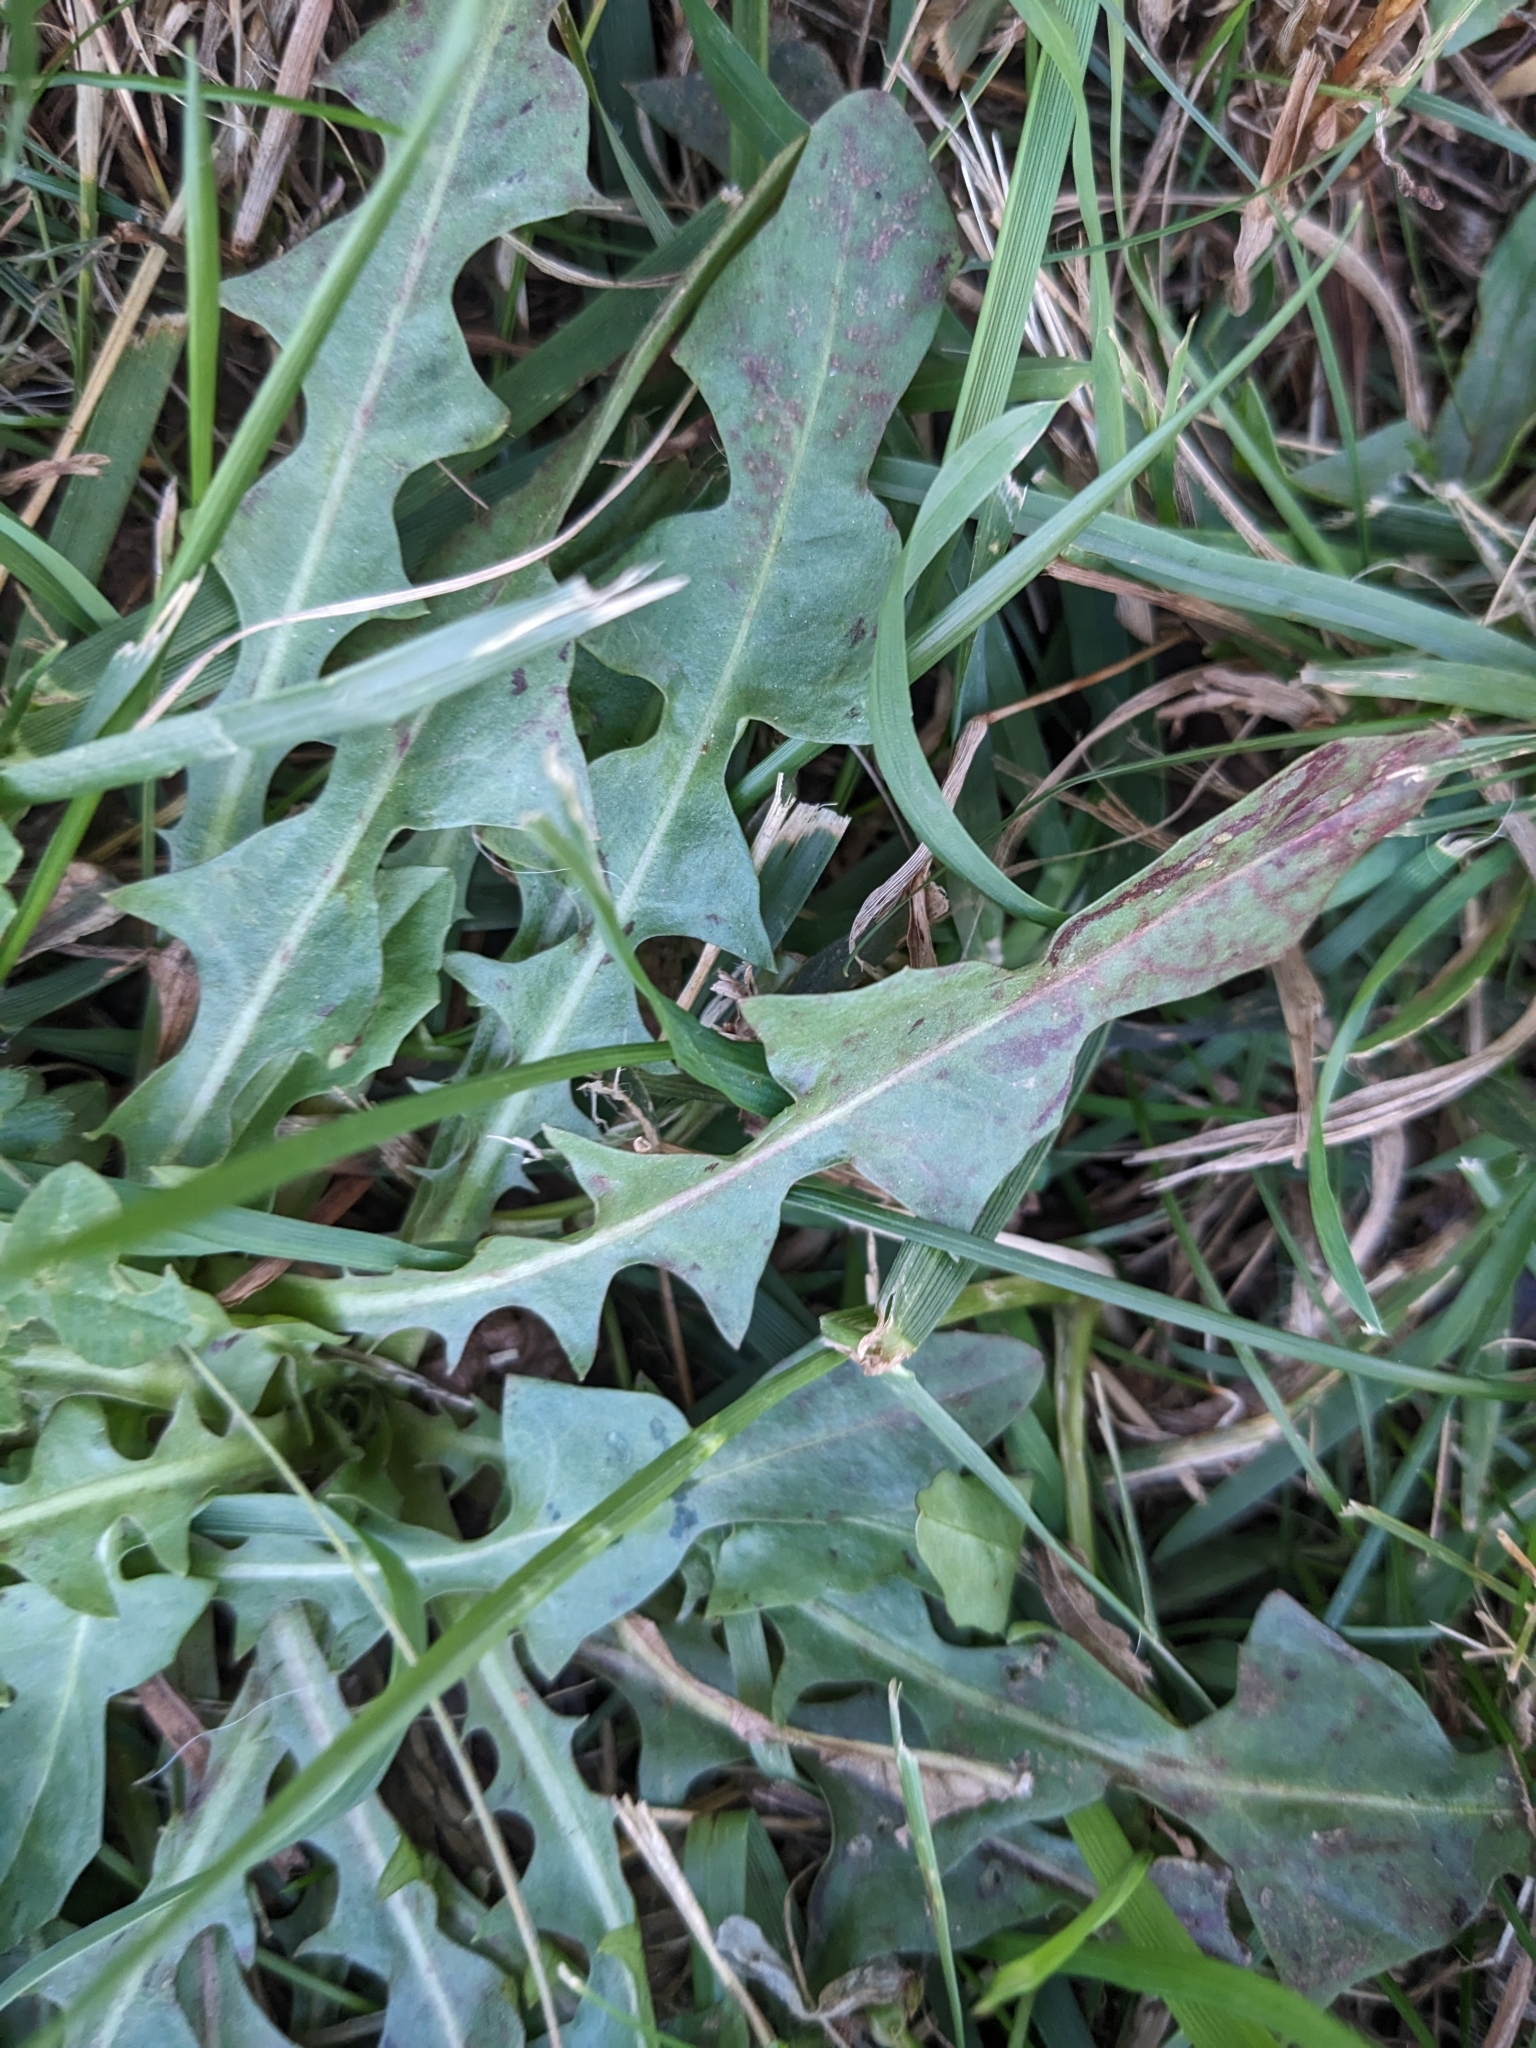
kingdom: Plantae
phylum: Tracheophyta
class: Magnoliopsida
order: Asterales
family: Asteraceae
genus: Taraxacum
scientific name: Taraxacum officinale
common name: Common dandelion
